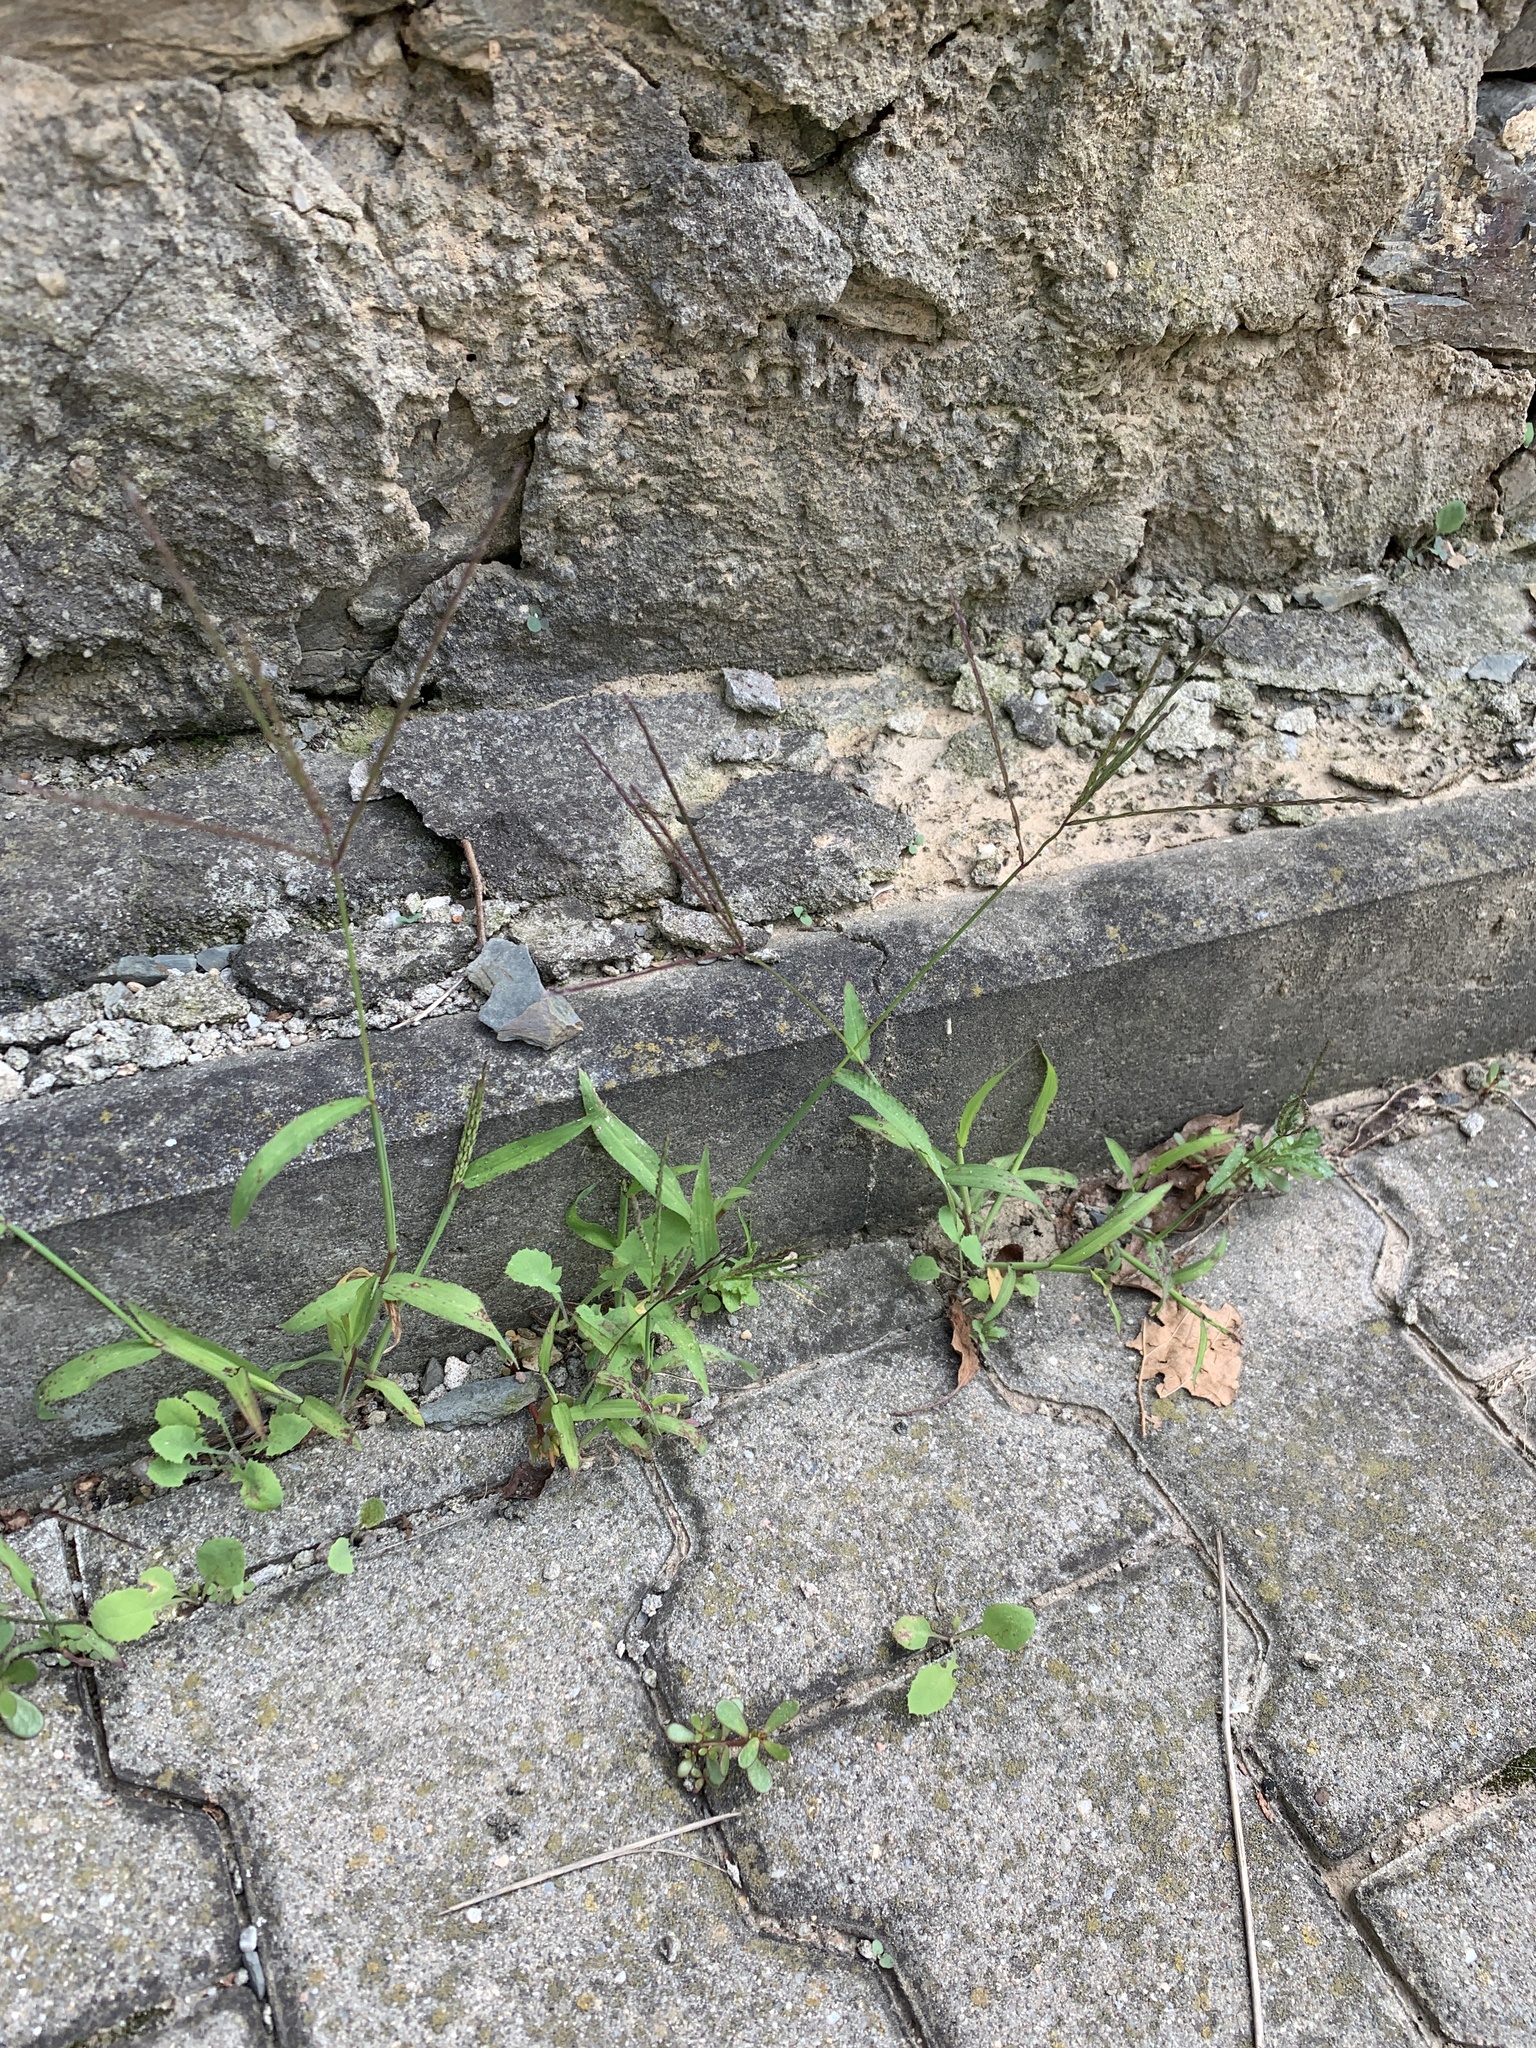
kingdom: Plantae
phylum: Tracheophyta
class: Liliopsida
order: Poales
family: Poaceae
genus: Digitaria
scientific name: Digitaria sanguinalis
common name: Hairy crabgrass
